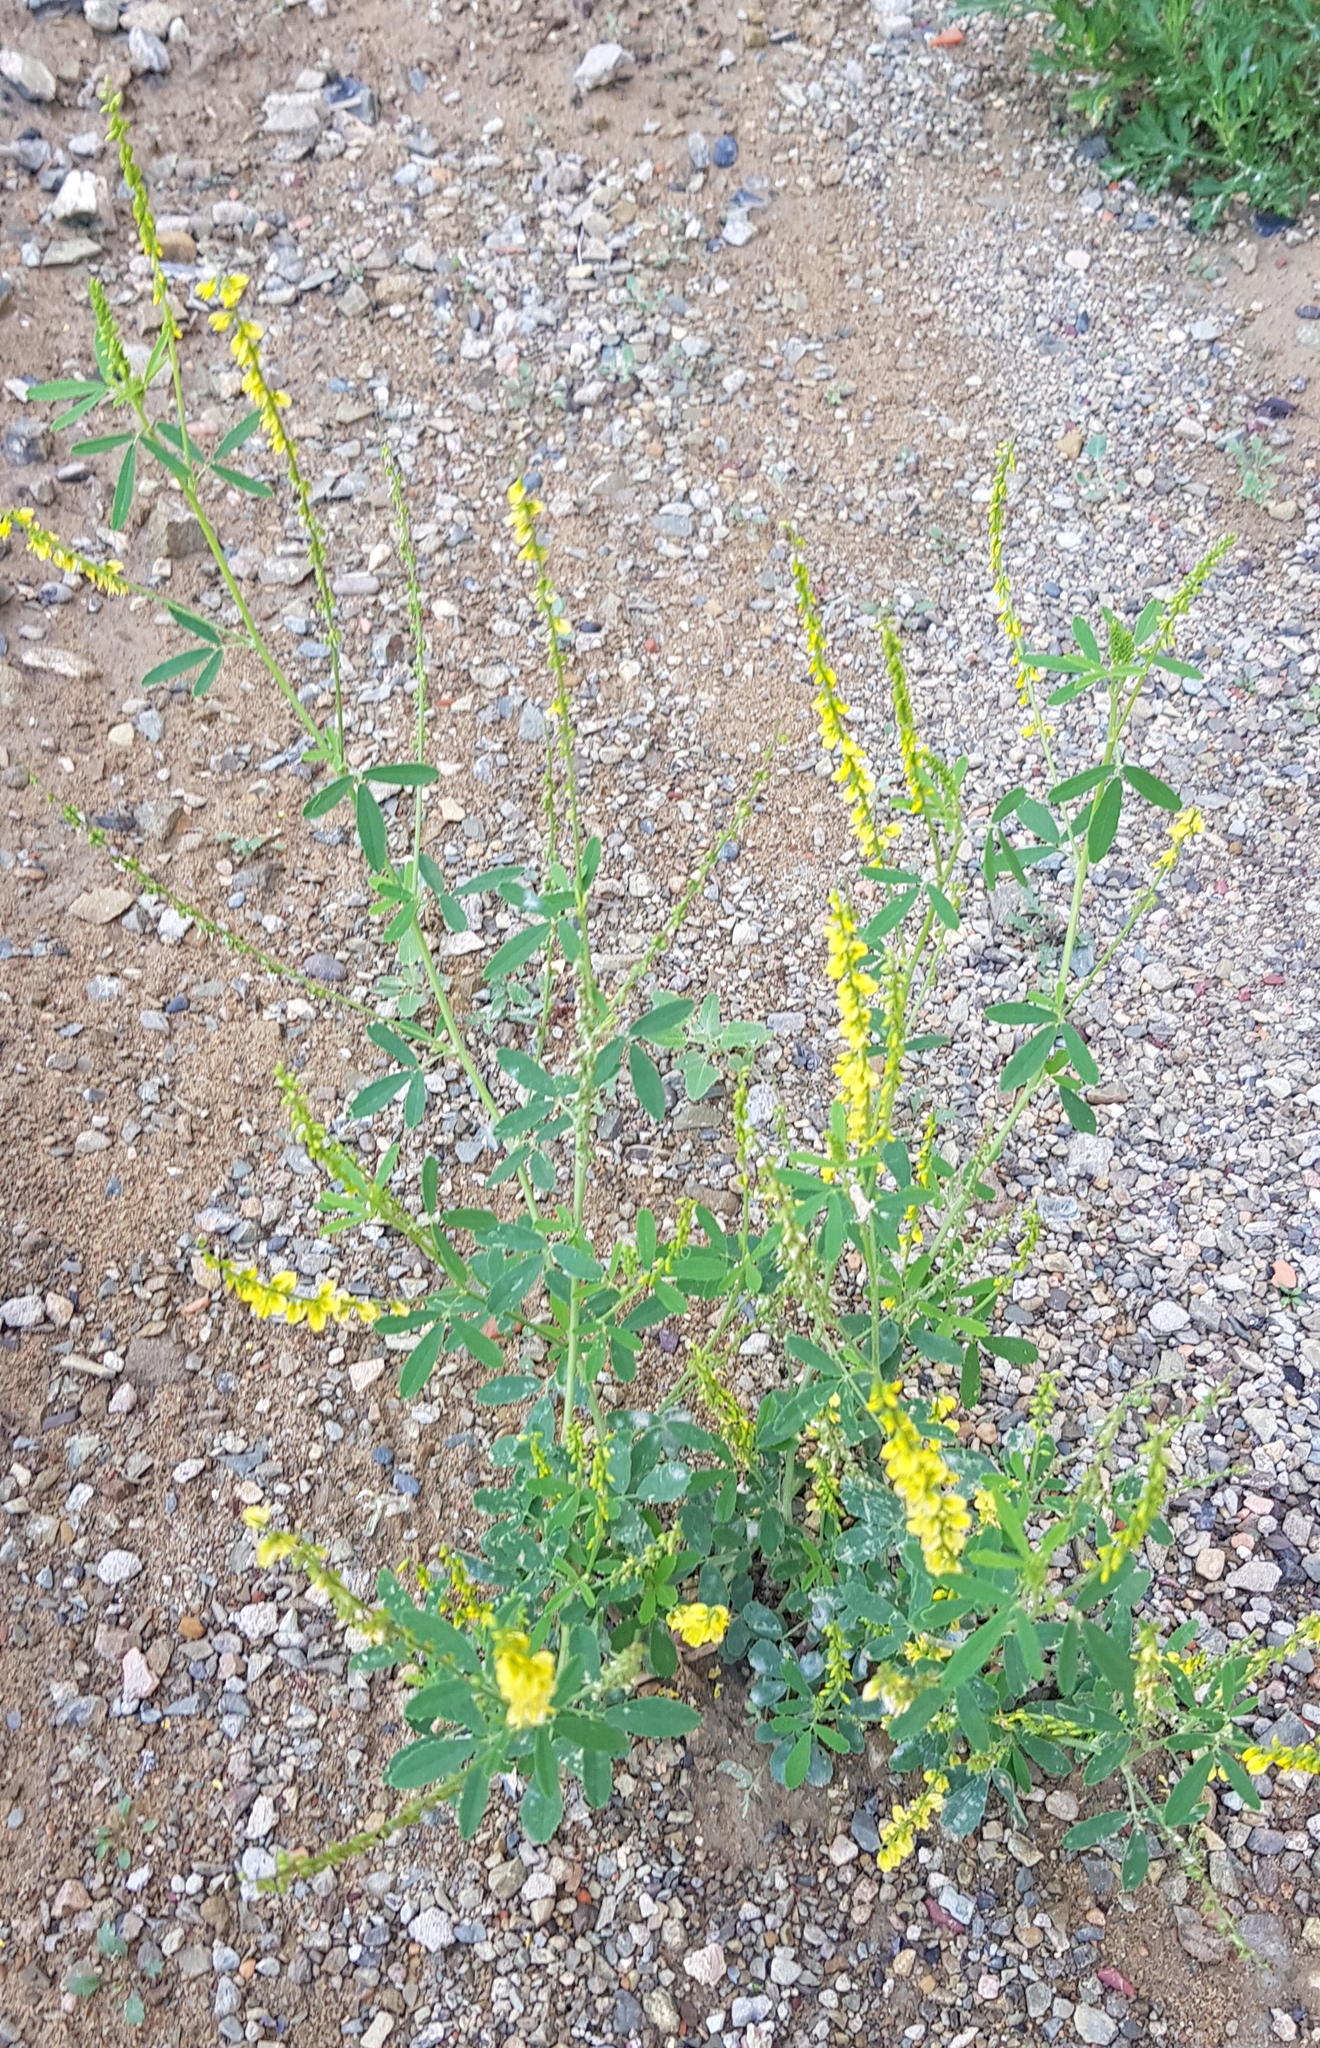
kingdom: Plantae
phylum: Tracheophyta
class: Magnoliopsida
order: Fabales
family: Fabaceae
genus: Melilotus
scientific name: Melilotus officinalis
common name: Sweetclover
